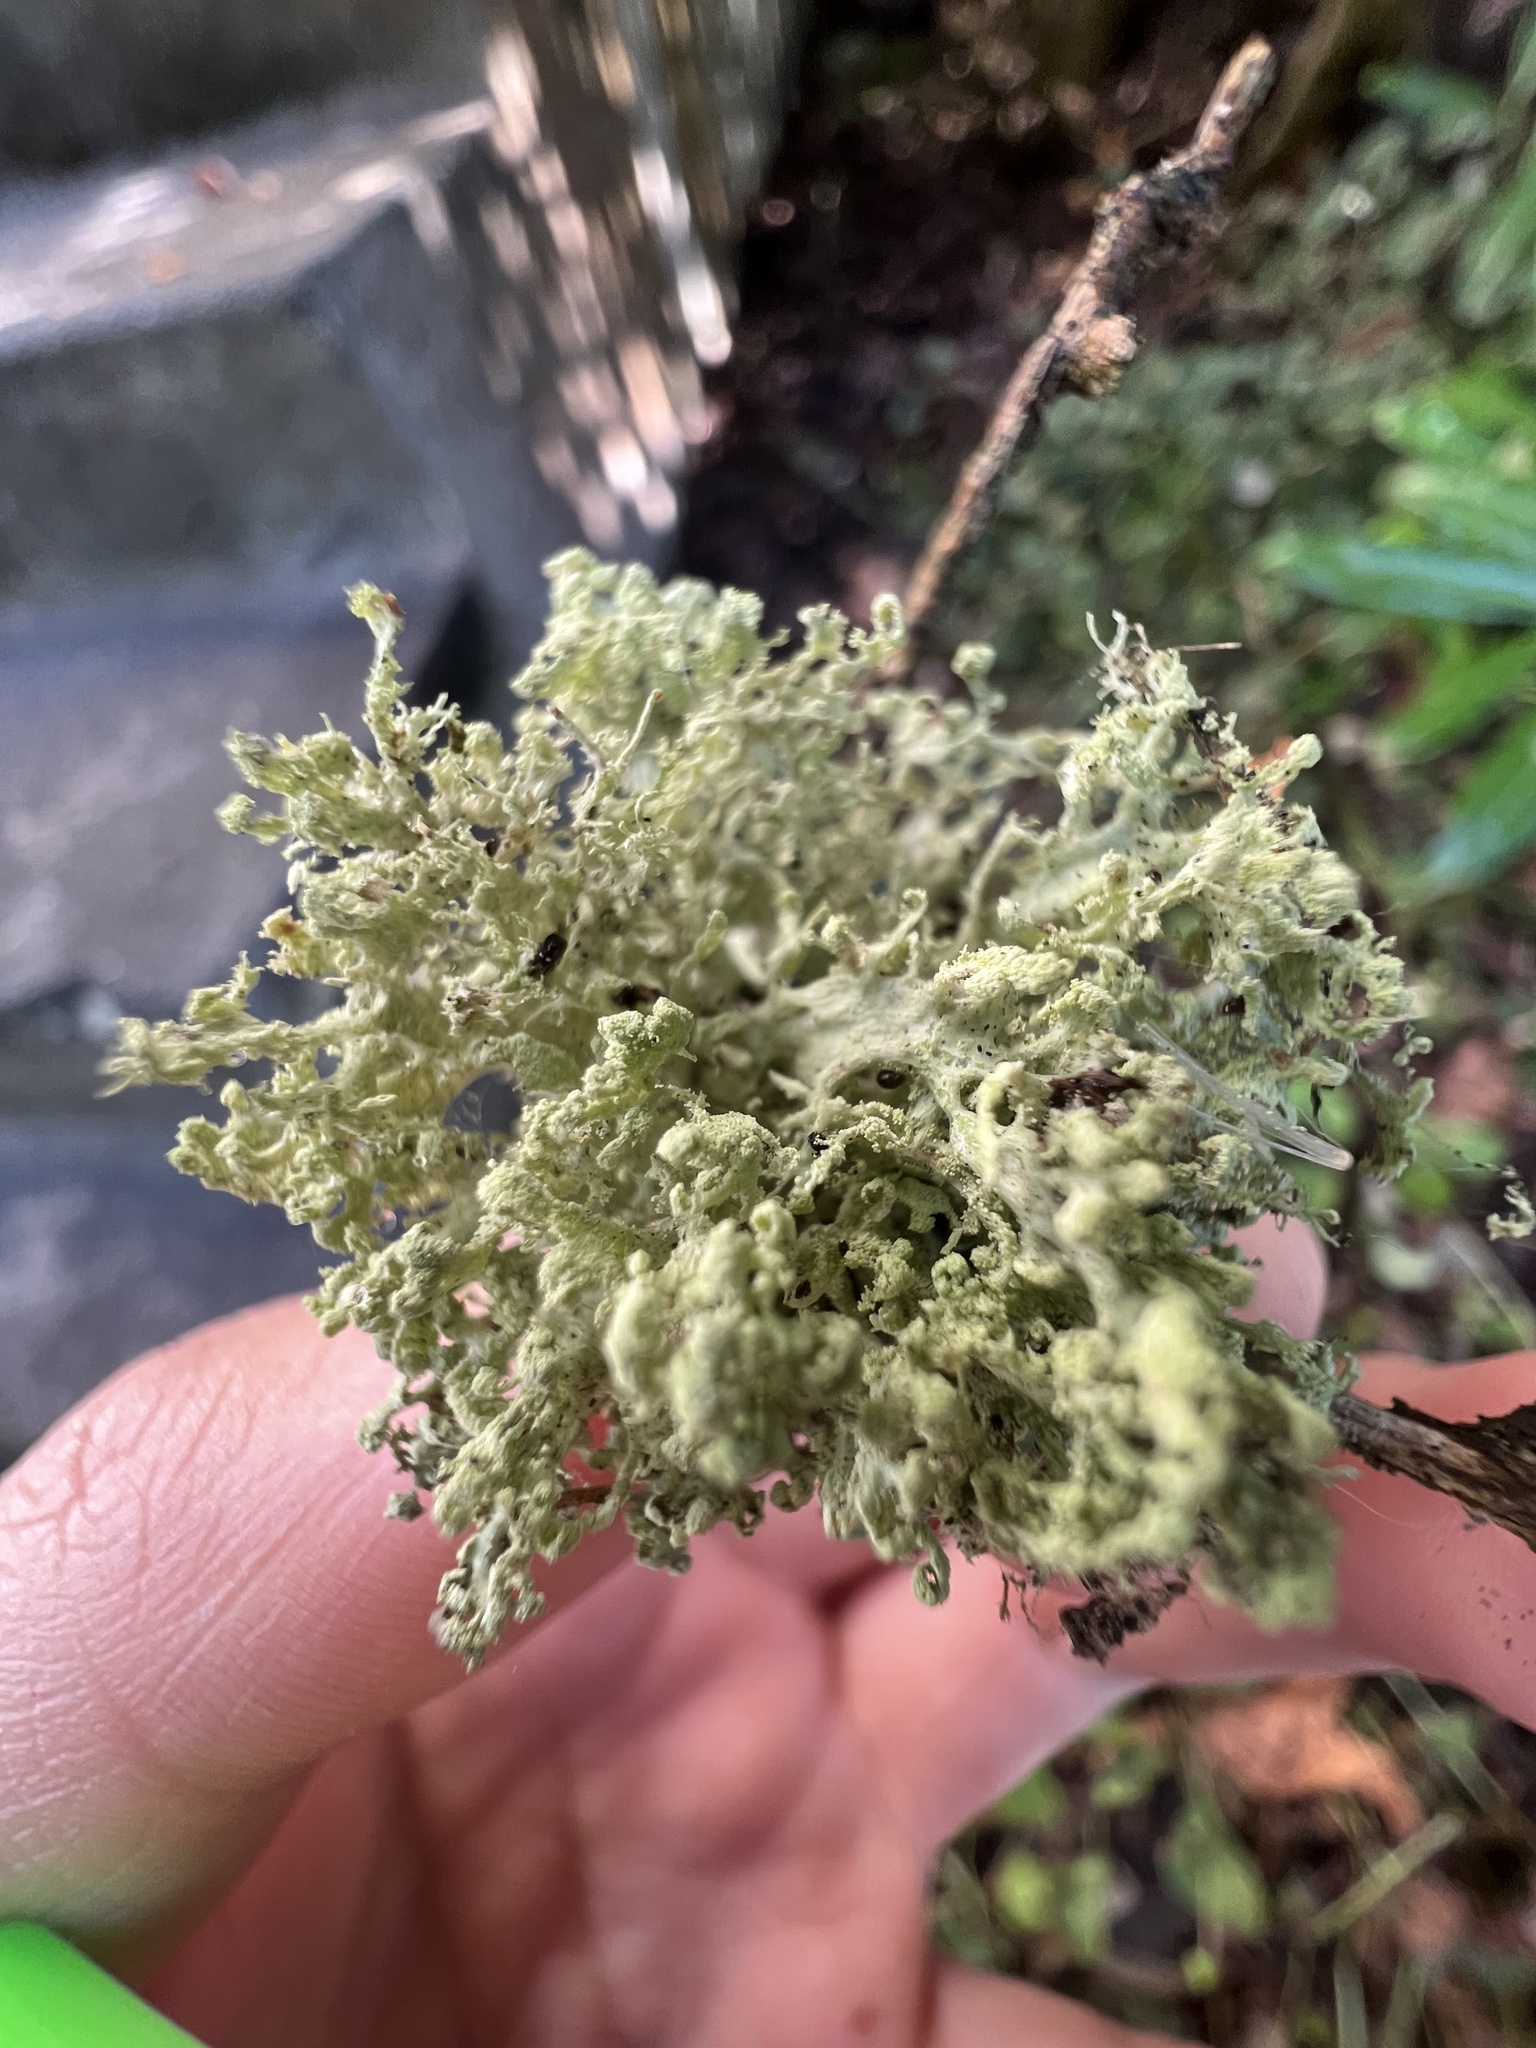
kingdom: Fungi
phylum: Ascomycota
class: Lecanoromycetes
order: Lecanorales
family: Ramalinaceae
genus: Ramalina
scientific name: Ramalina pollinaria
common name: Powdery twig lichen
